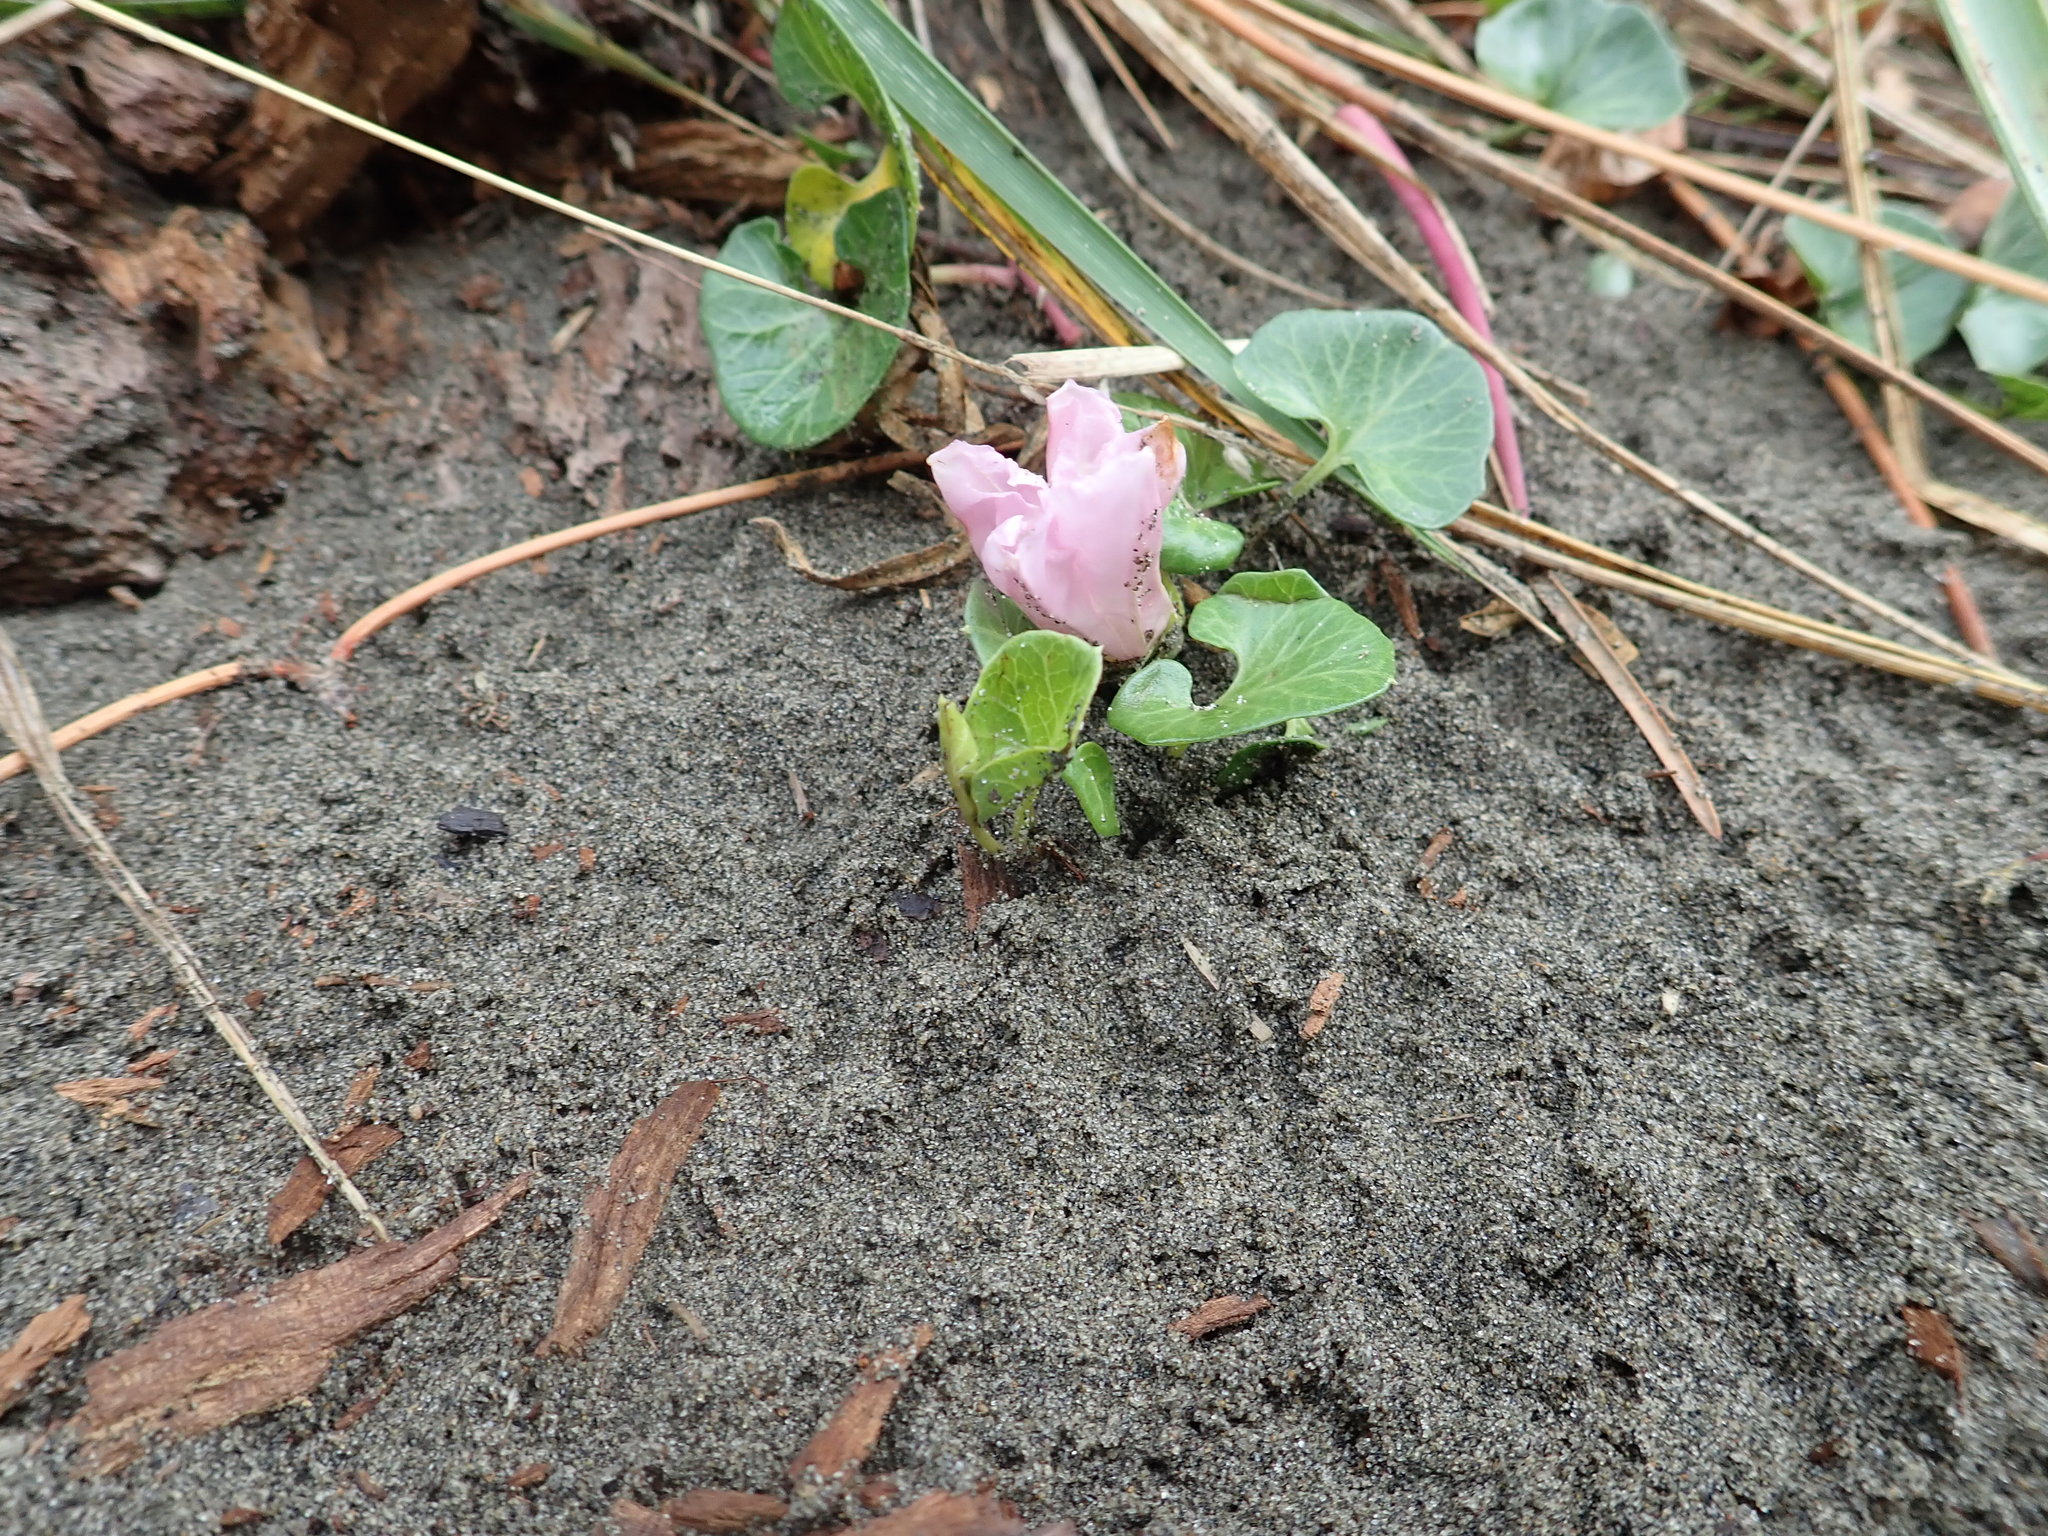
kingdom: Plantae
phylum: Tracheophyta
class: Magnoliopsida
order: Solanales
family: Convolvulaceae
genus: Calystegia
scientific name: Calystegia soldanella
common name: Sea bindweed
